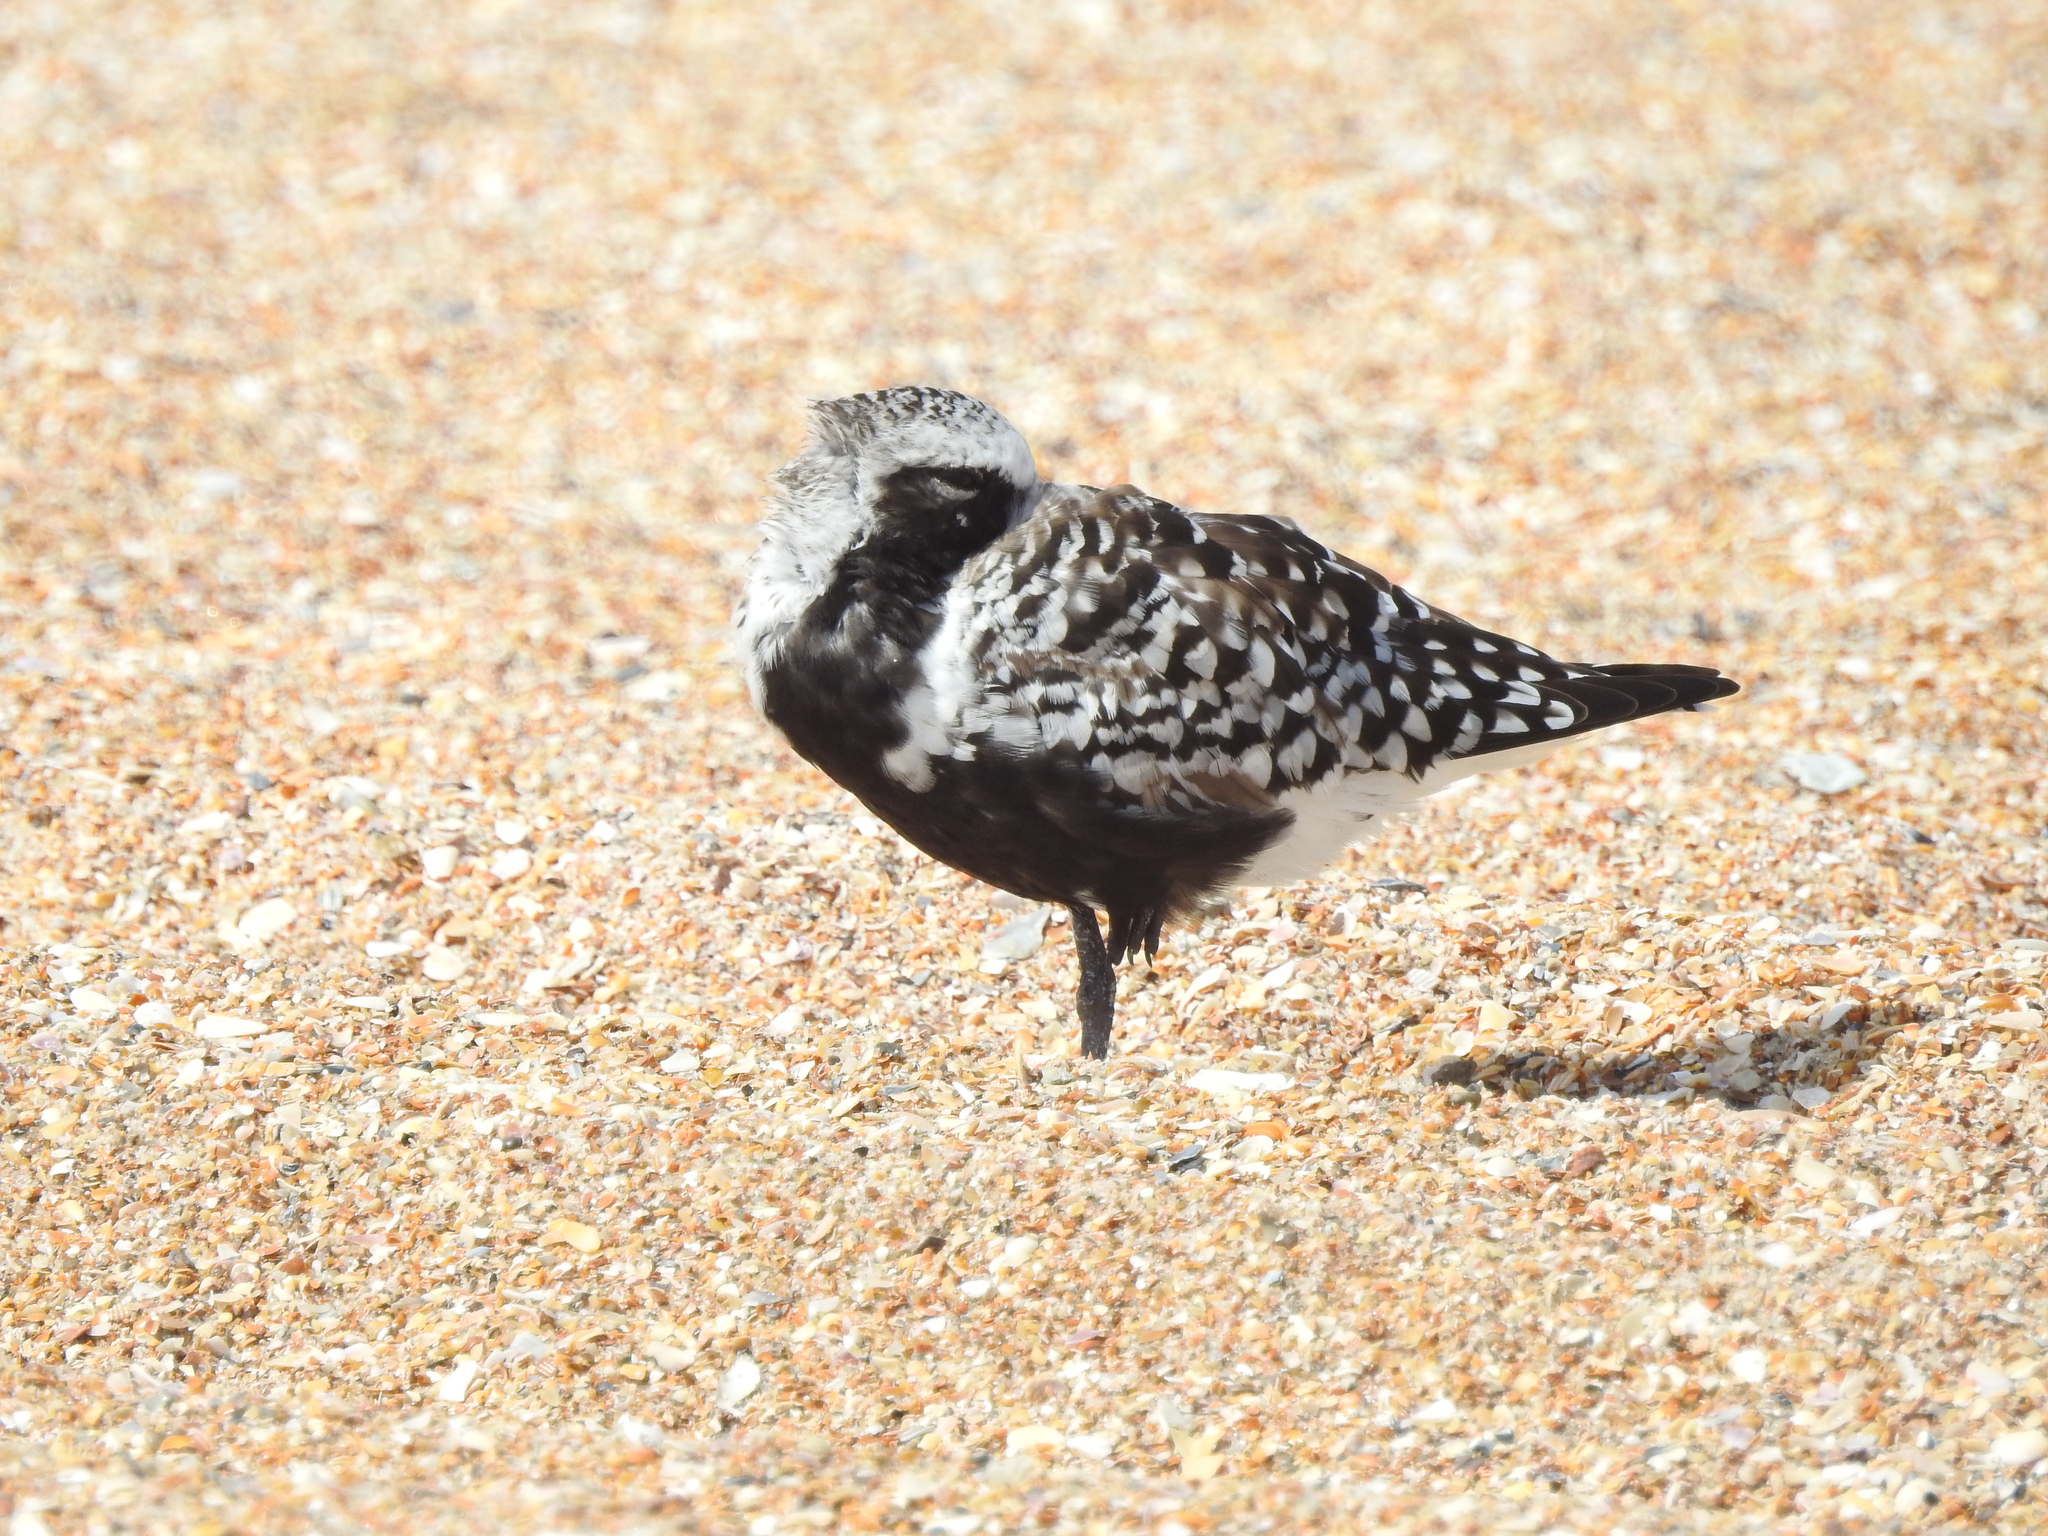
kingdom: Animalia
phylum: Chordata
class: Aves
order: Charadriiformes
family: Charadriidae
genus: Pluvialis
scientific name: Pluvialis squatarola
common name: Grey plover
